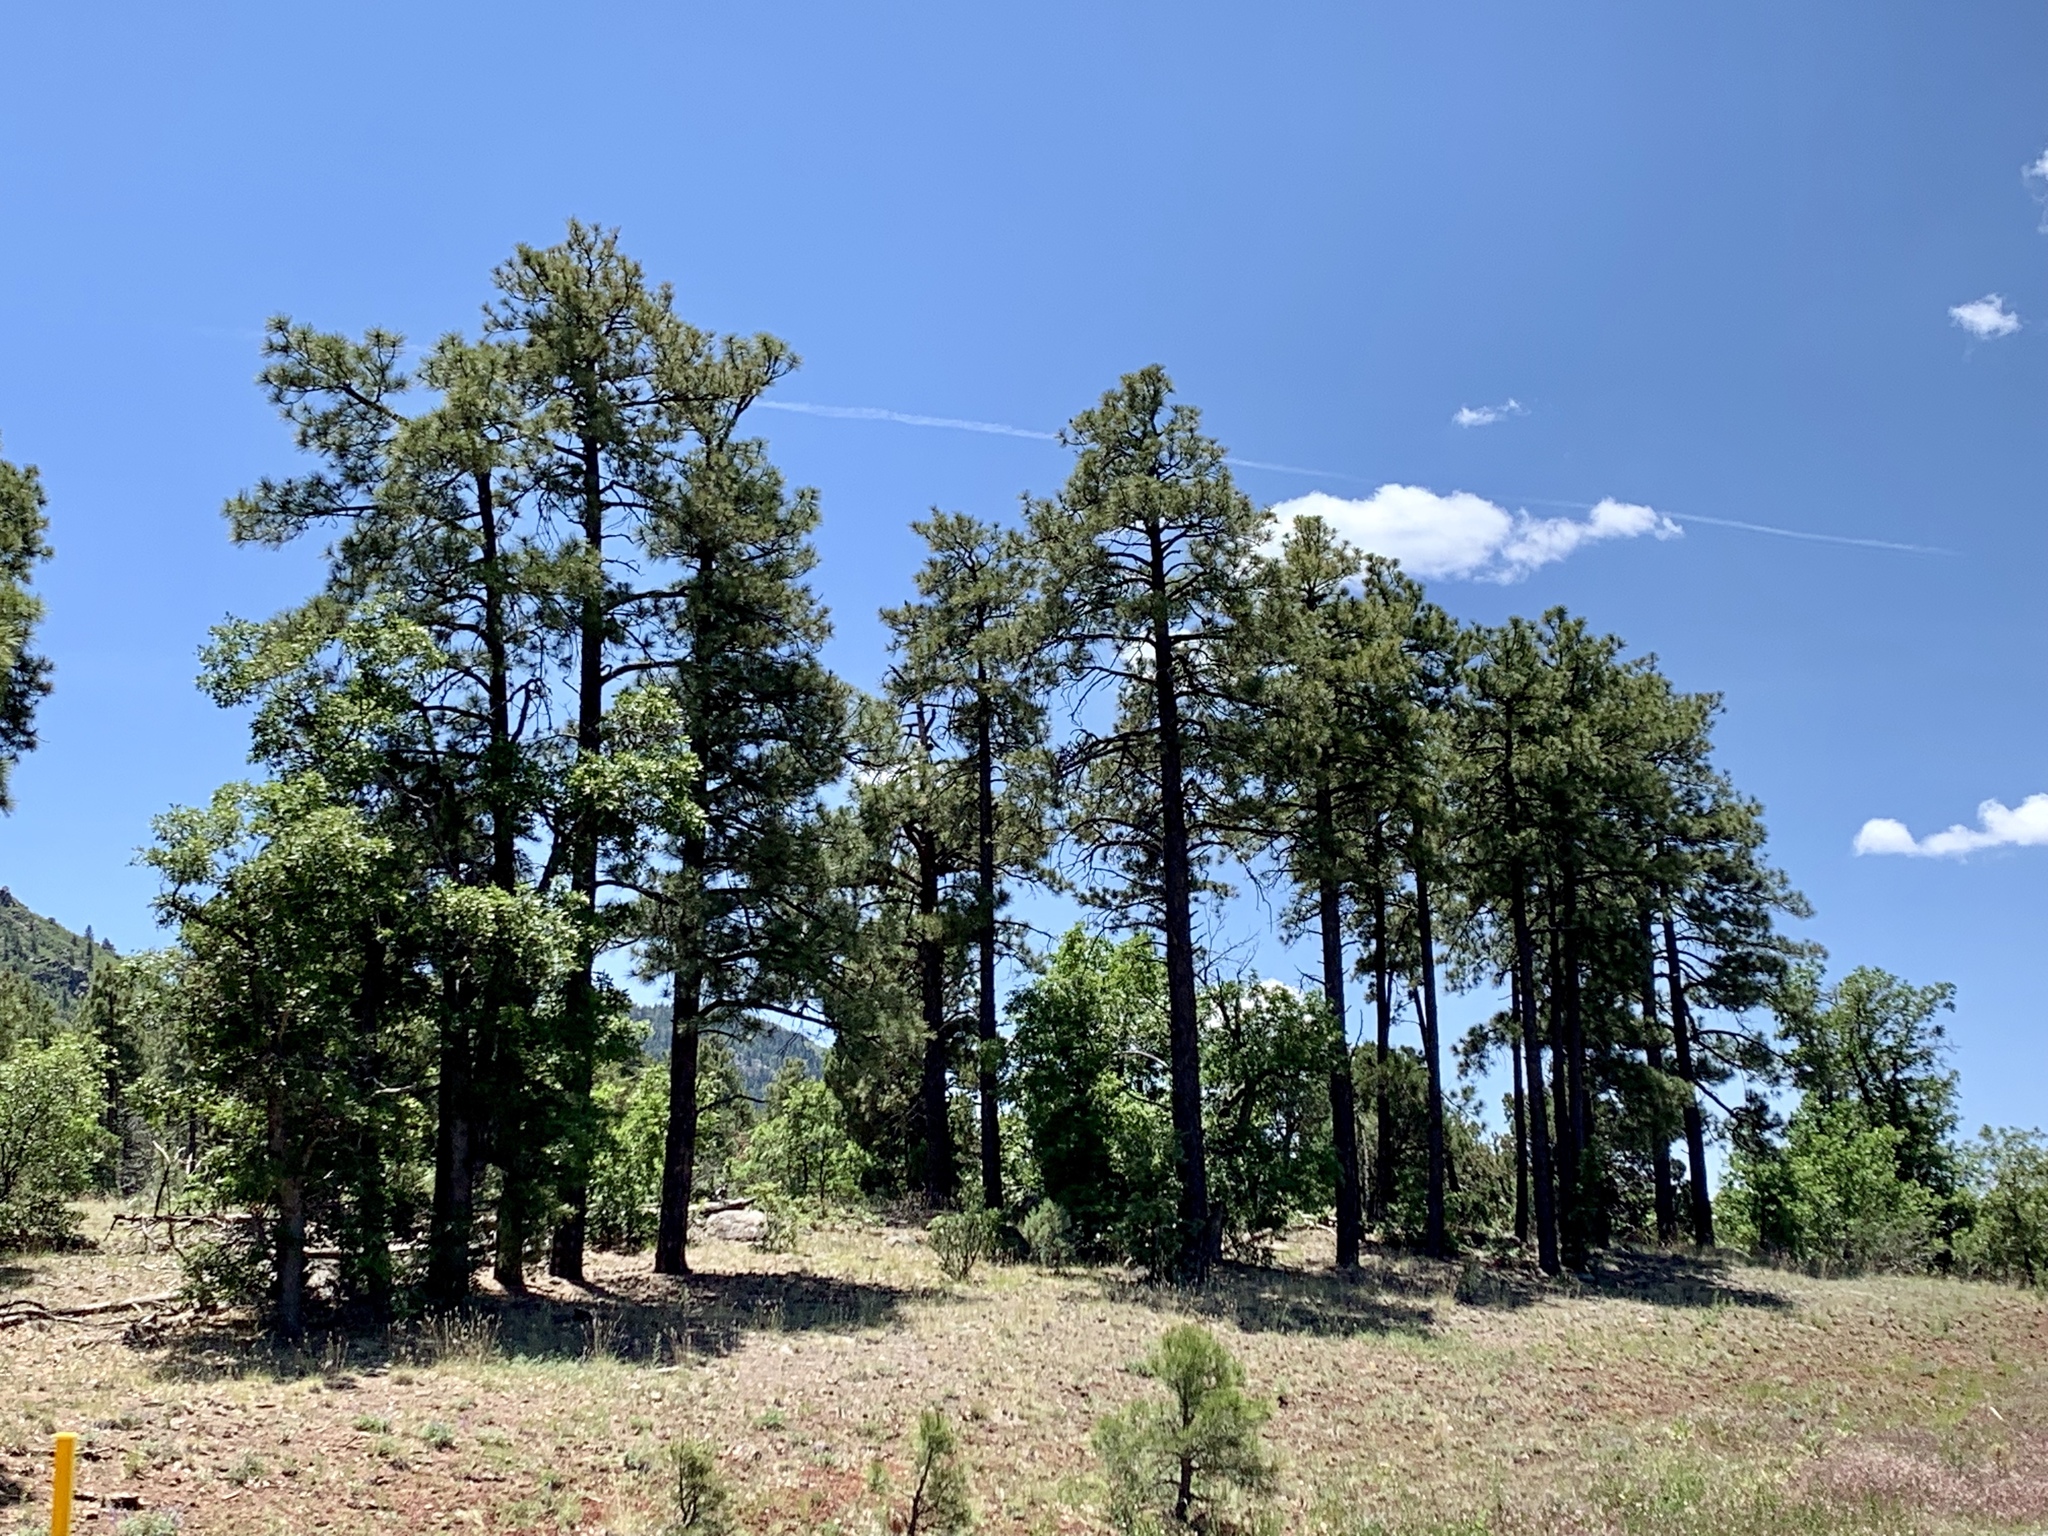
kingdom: Plantae
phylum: Tracheophyta
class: Pinopsida
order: Pinales
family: Pinaceae
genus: Pinus
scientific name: Pinus ponderosa
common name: Western yellow-pine
